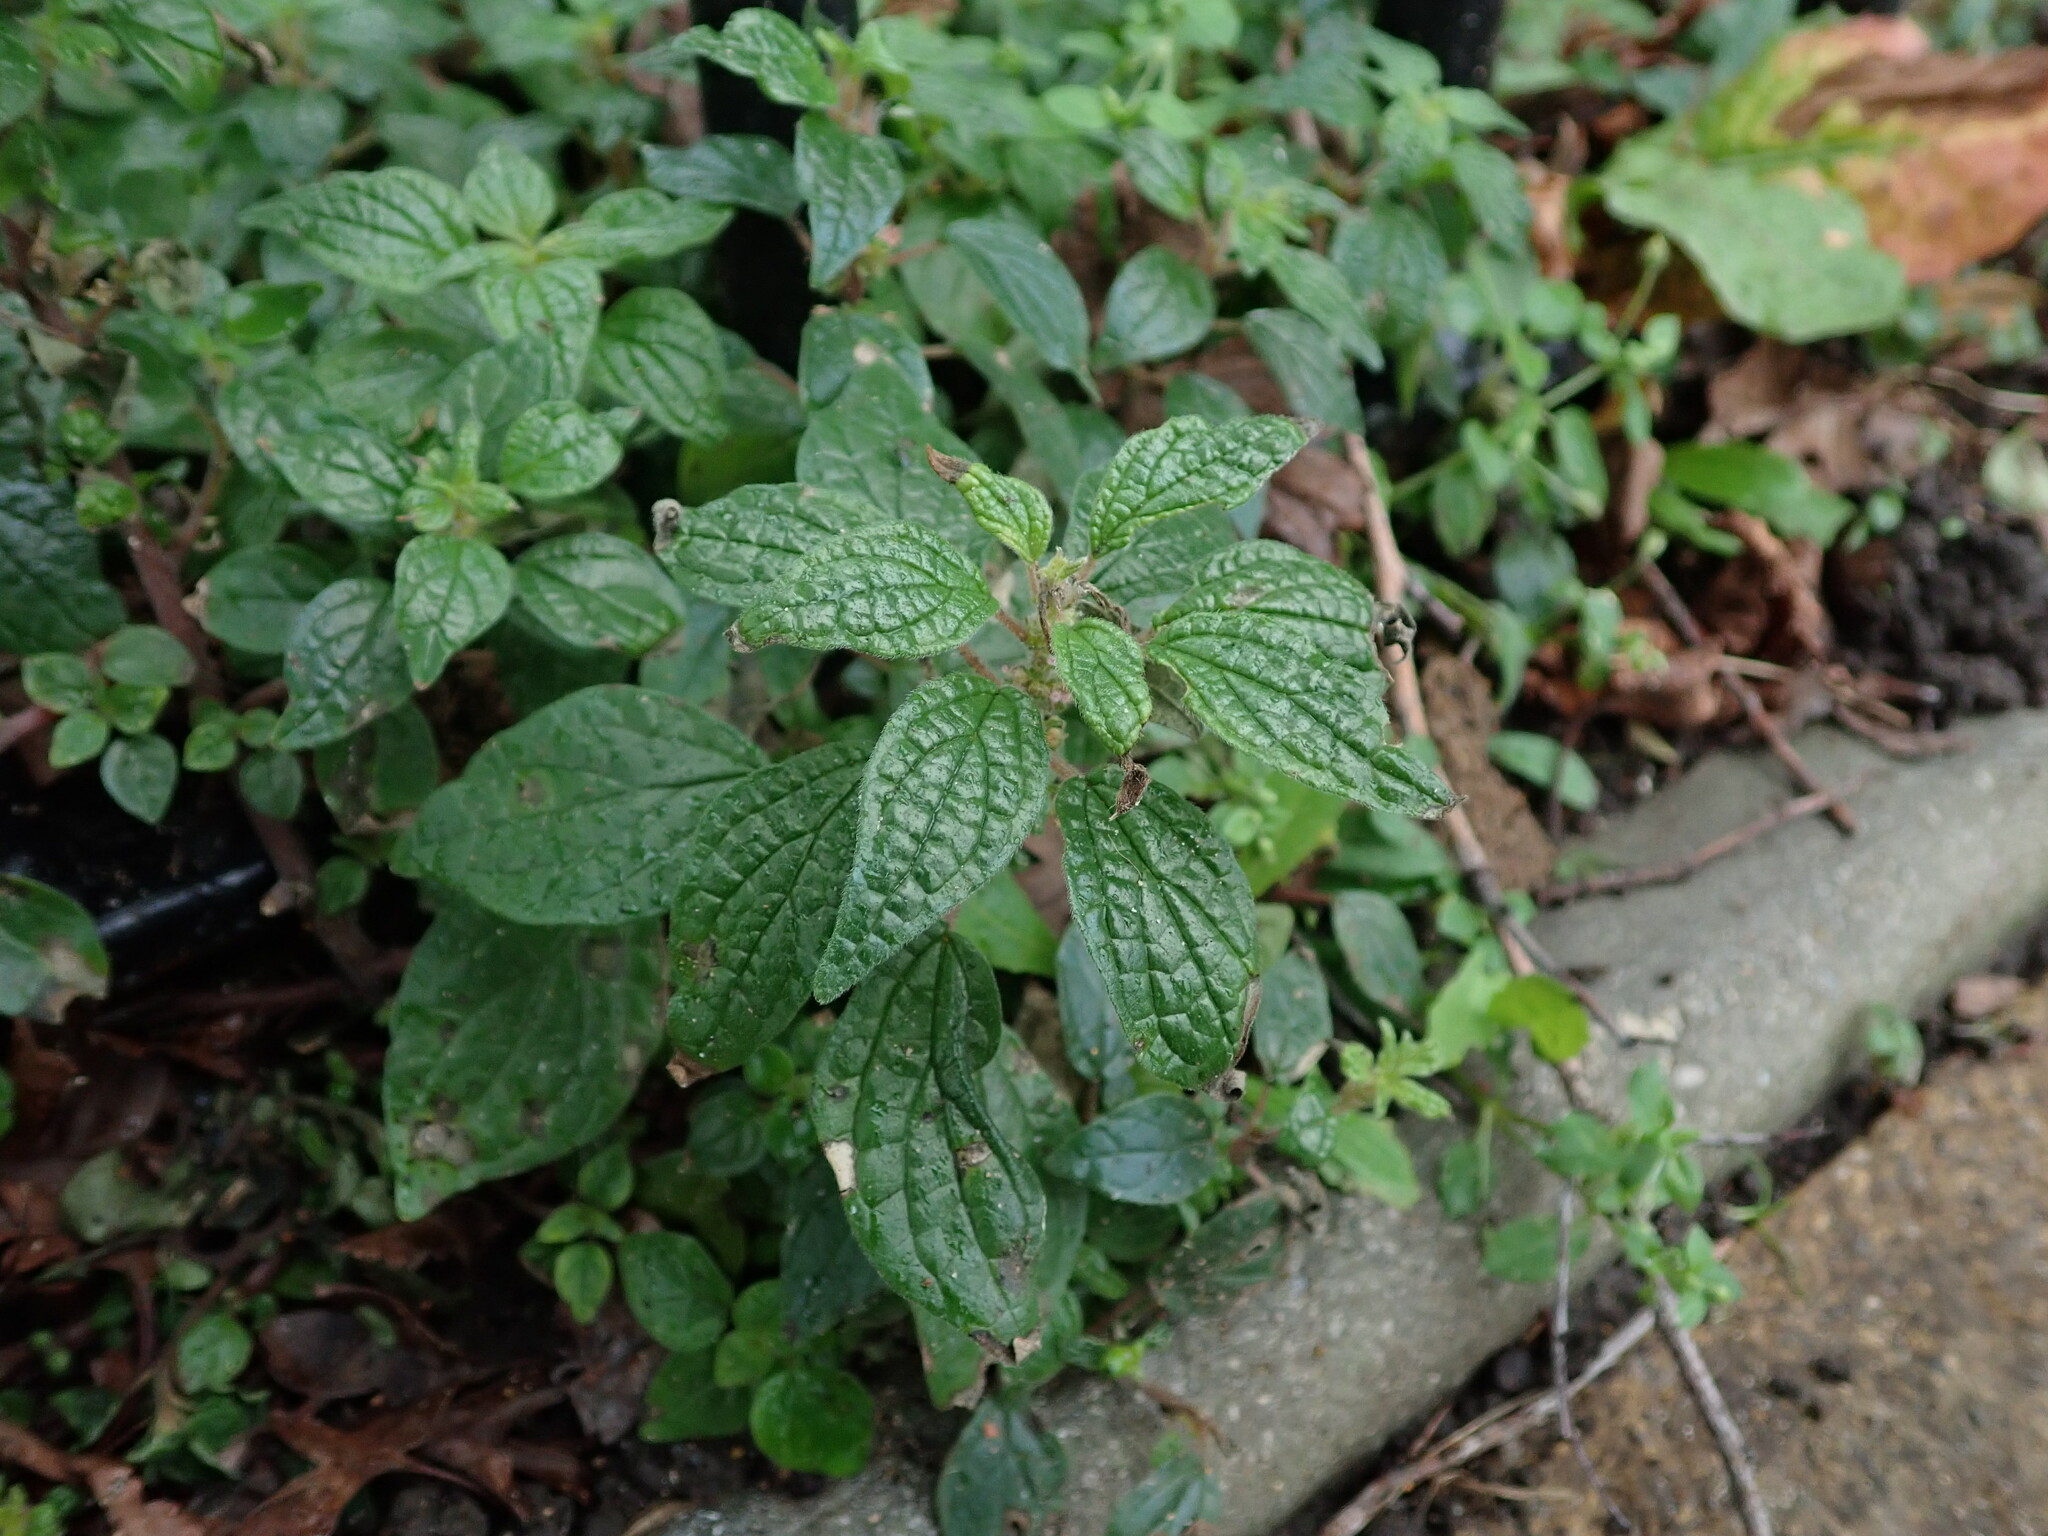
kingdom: Plantae
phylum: Tracheophyta
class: Magnoliopsida
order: Rosales
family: Urticaceae
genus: Parietaria
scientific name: Parietaria judaica
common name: Pellitory-of-the-wall
